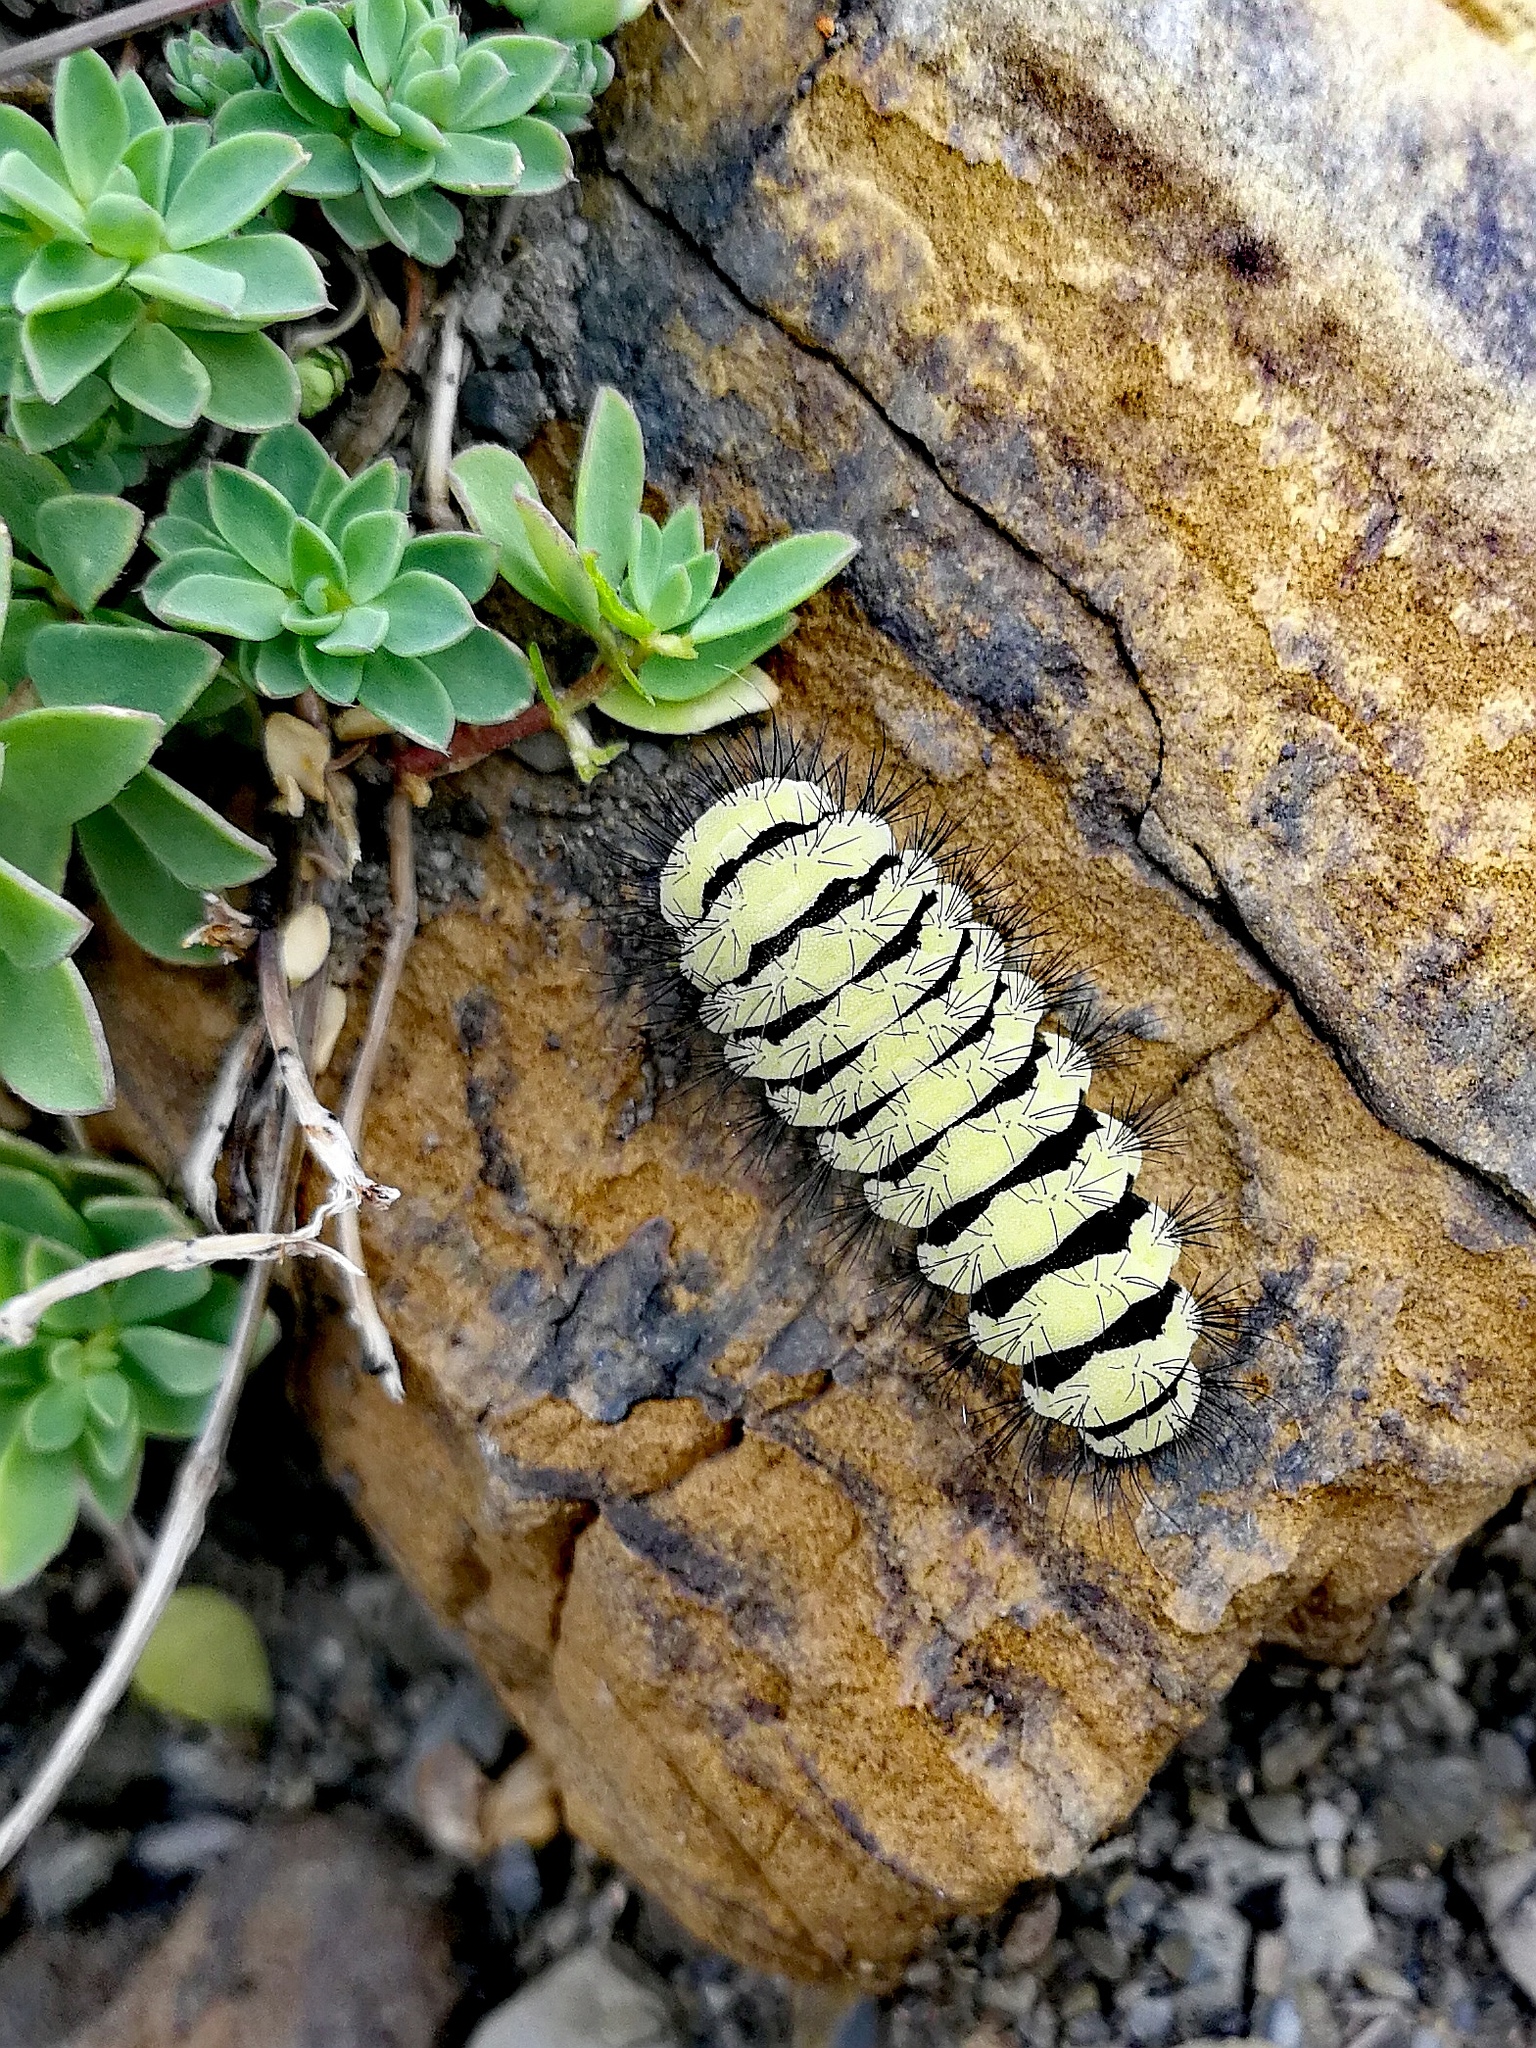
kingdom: Animalia
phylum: Arthropoda
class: Insecta
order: Lepidoptera
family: Zygaenidae
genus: Zygaena
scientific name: Zygaena anthyllidis
